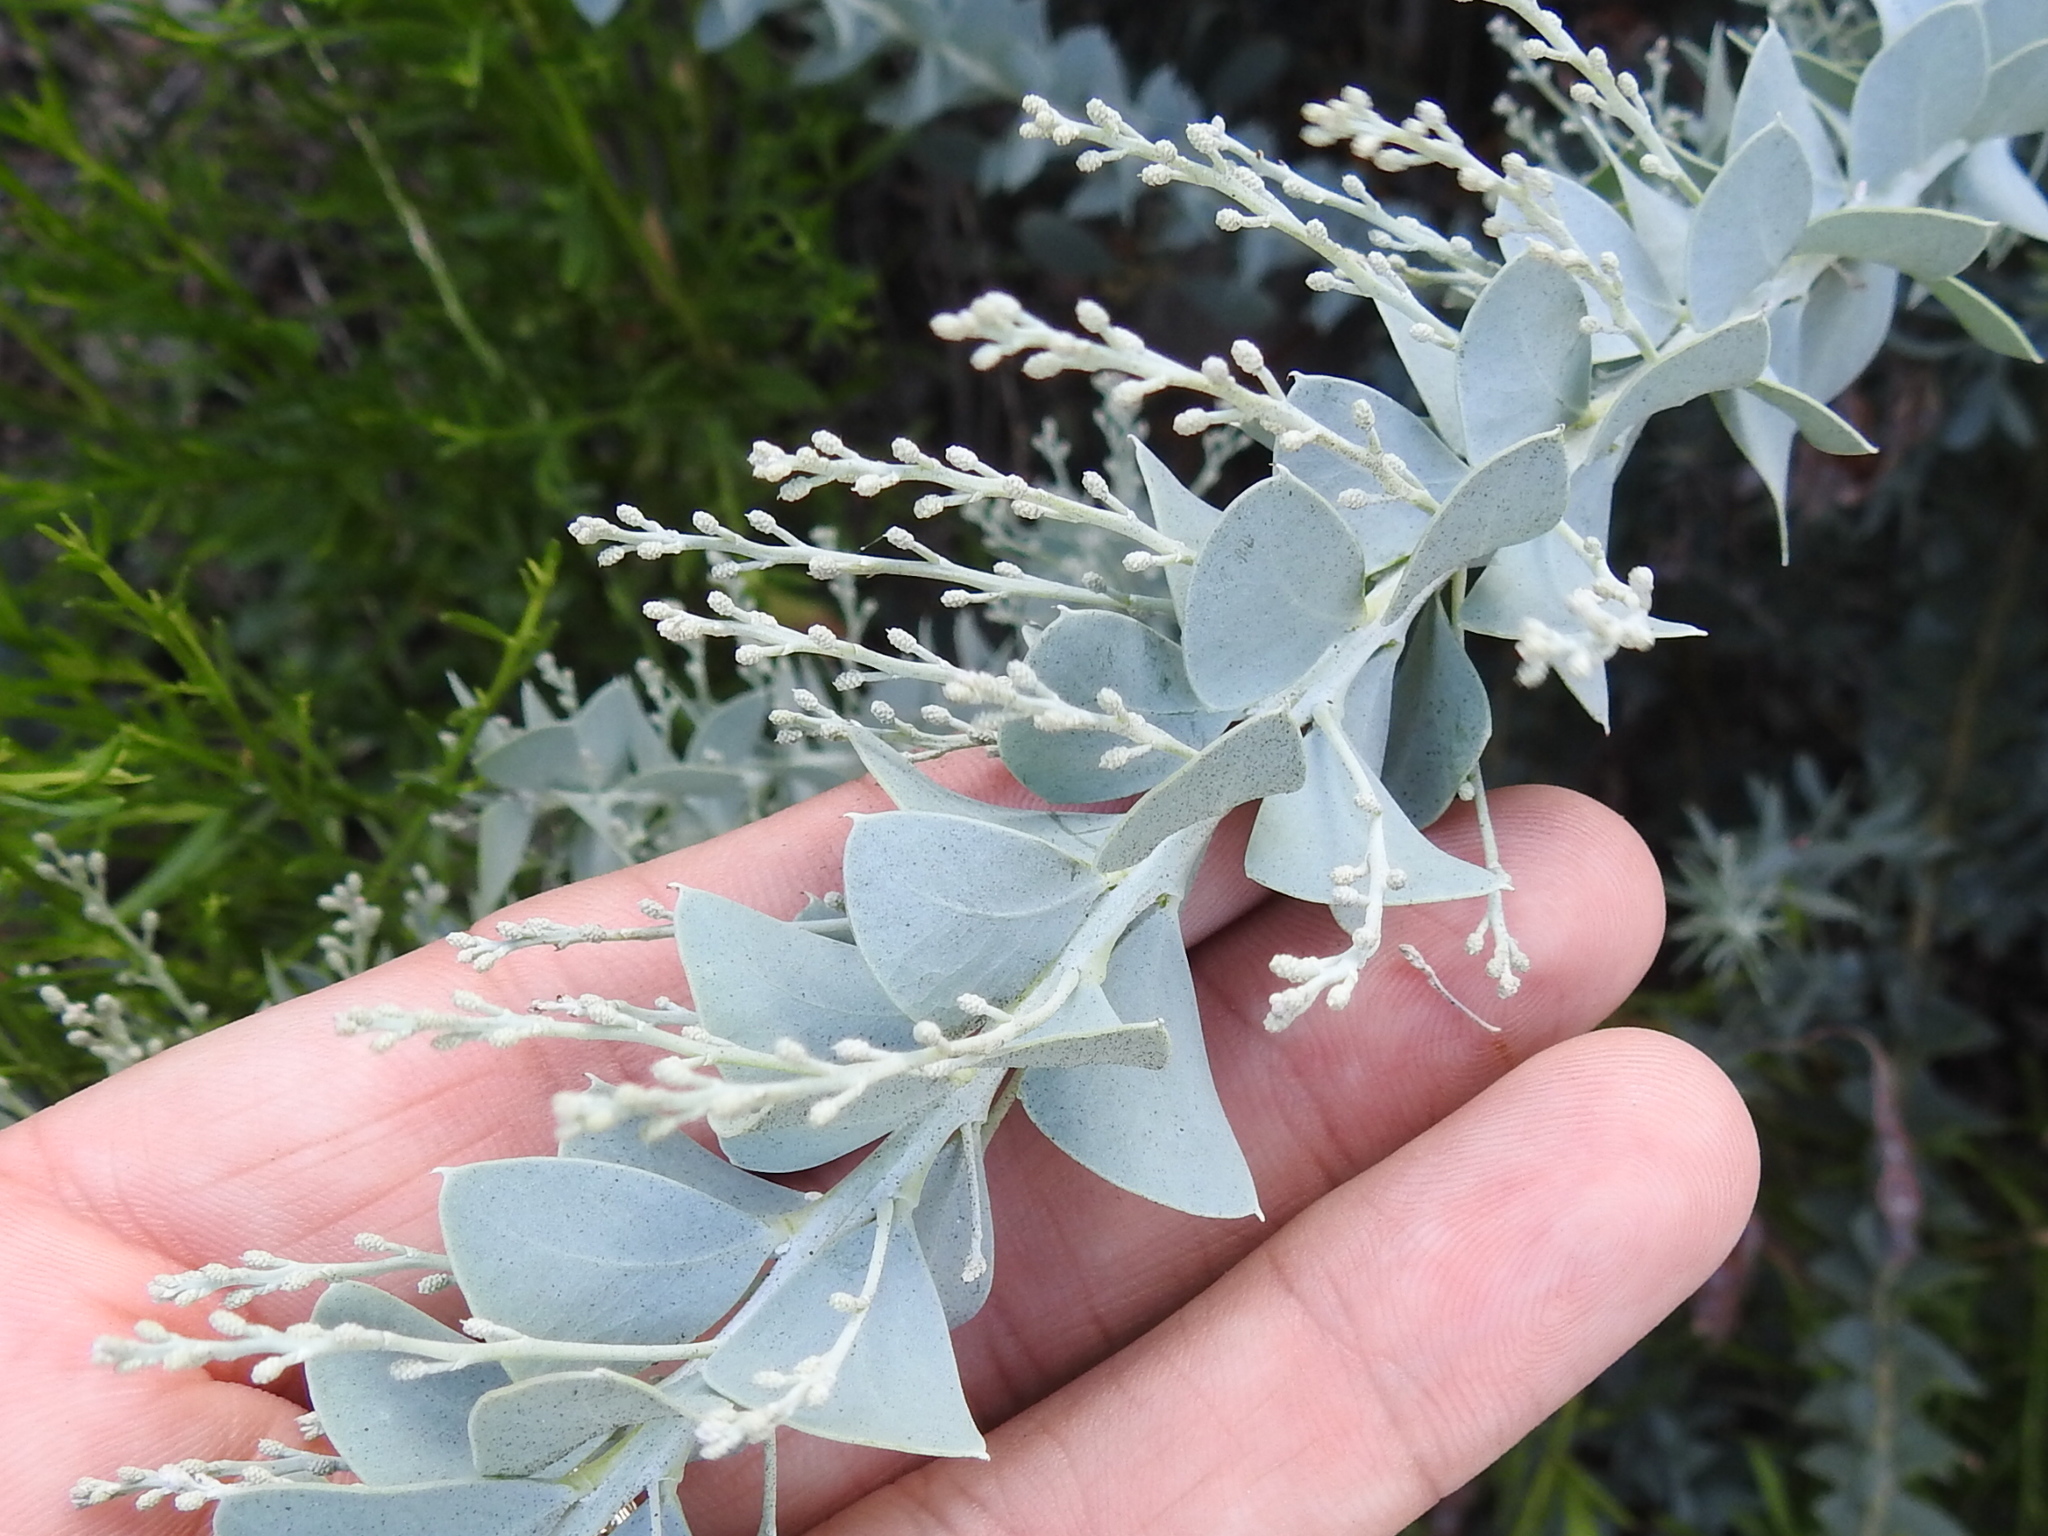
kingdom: Plantae
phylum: Tracheophyta
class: Magnoliopsida
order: Fabales
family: Fabaceae
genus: Acacia
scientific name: Acacia cultriformis
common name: Knife acacia
